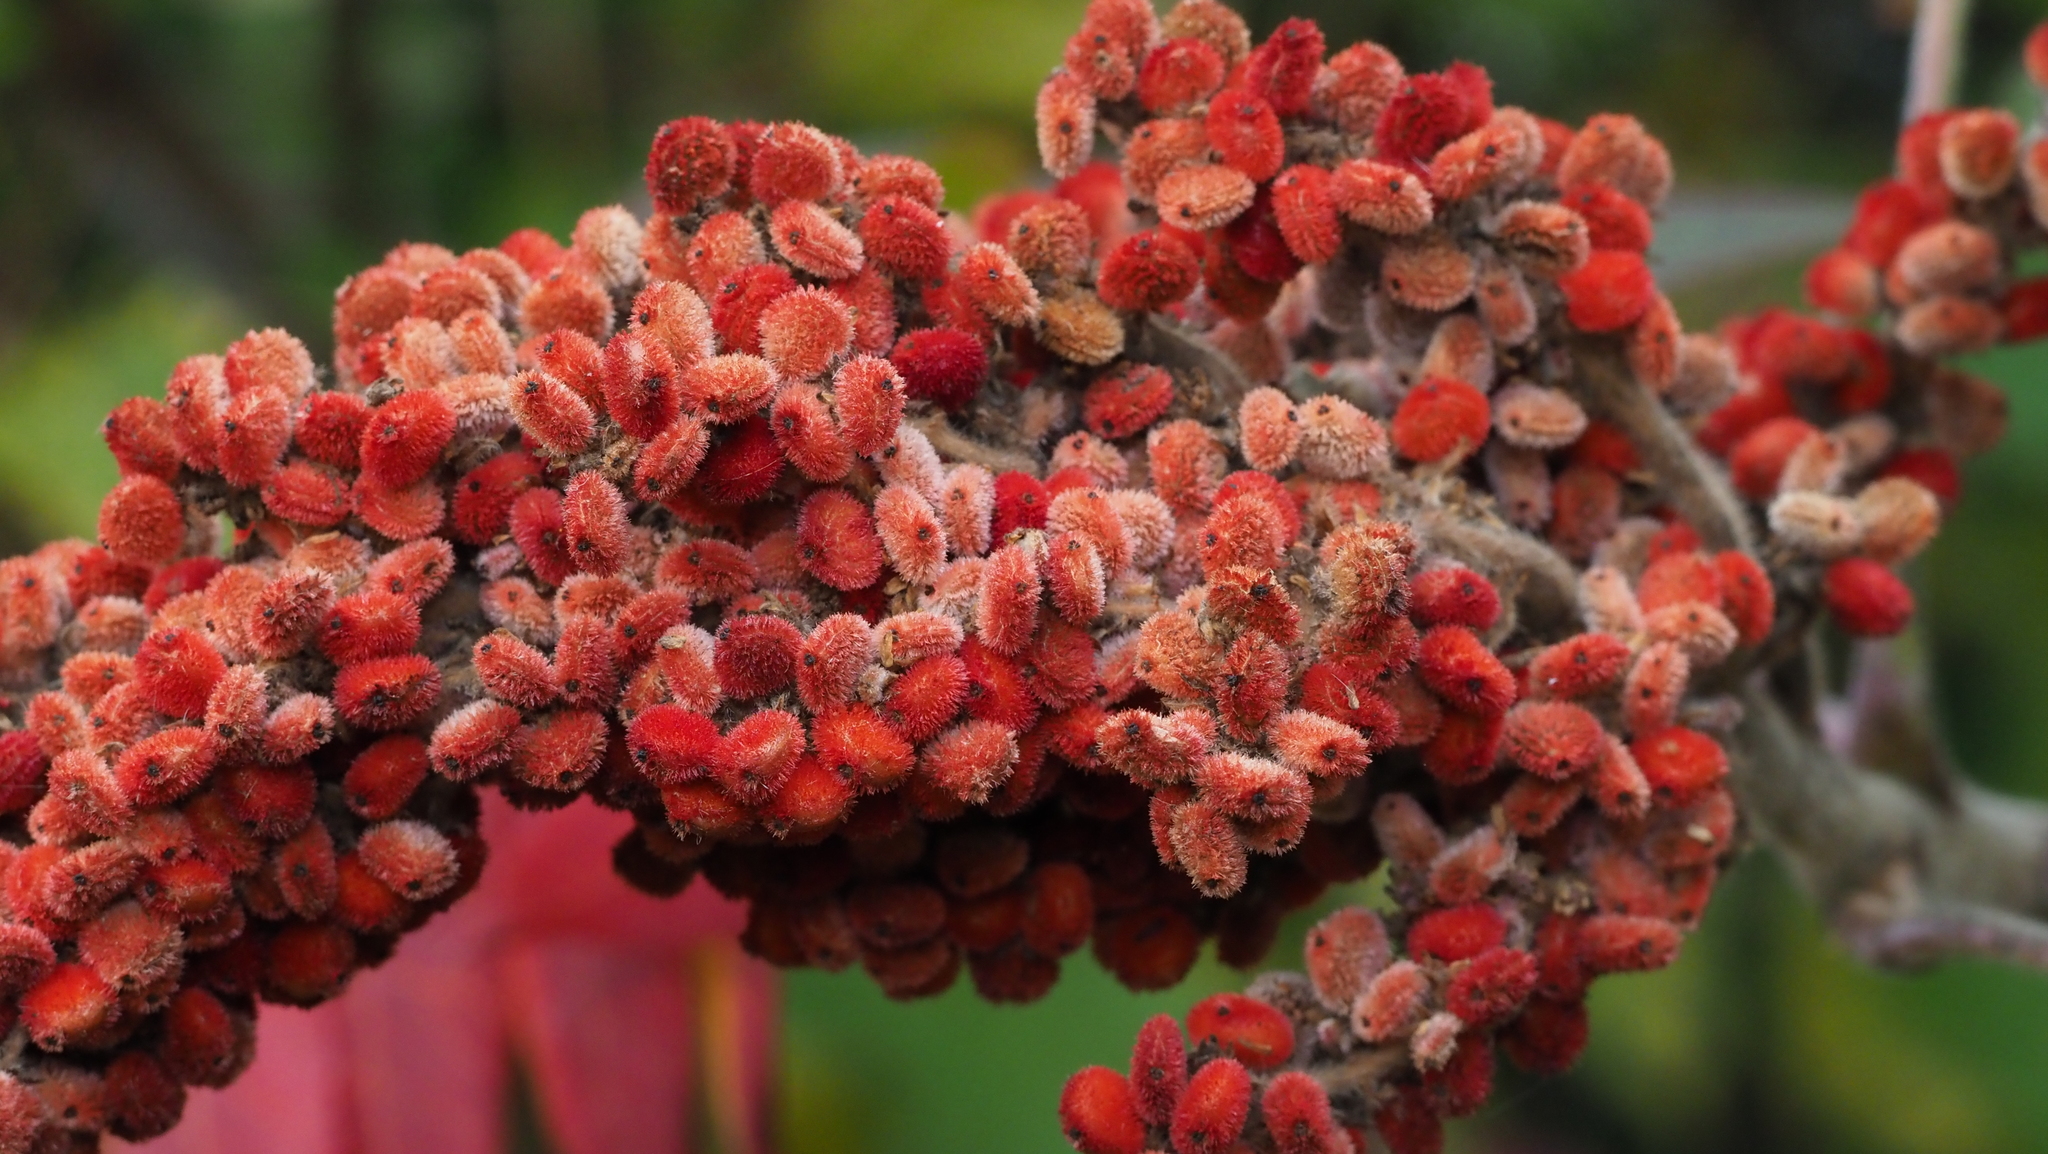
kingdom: Plantae
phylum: Tracheophyta
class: Magnoliopsida
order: Sapindales
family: Anacardiaceae
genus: Rhus
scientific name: Rhus typhina
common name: Staghorn sumac
